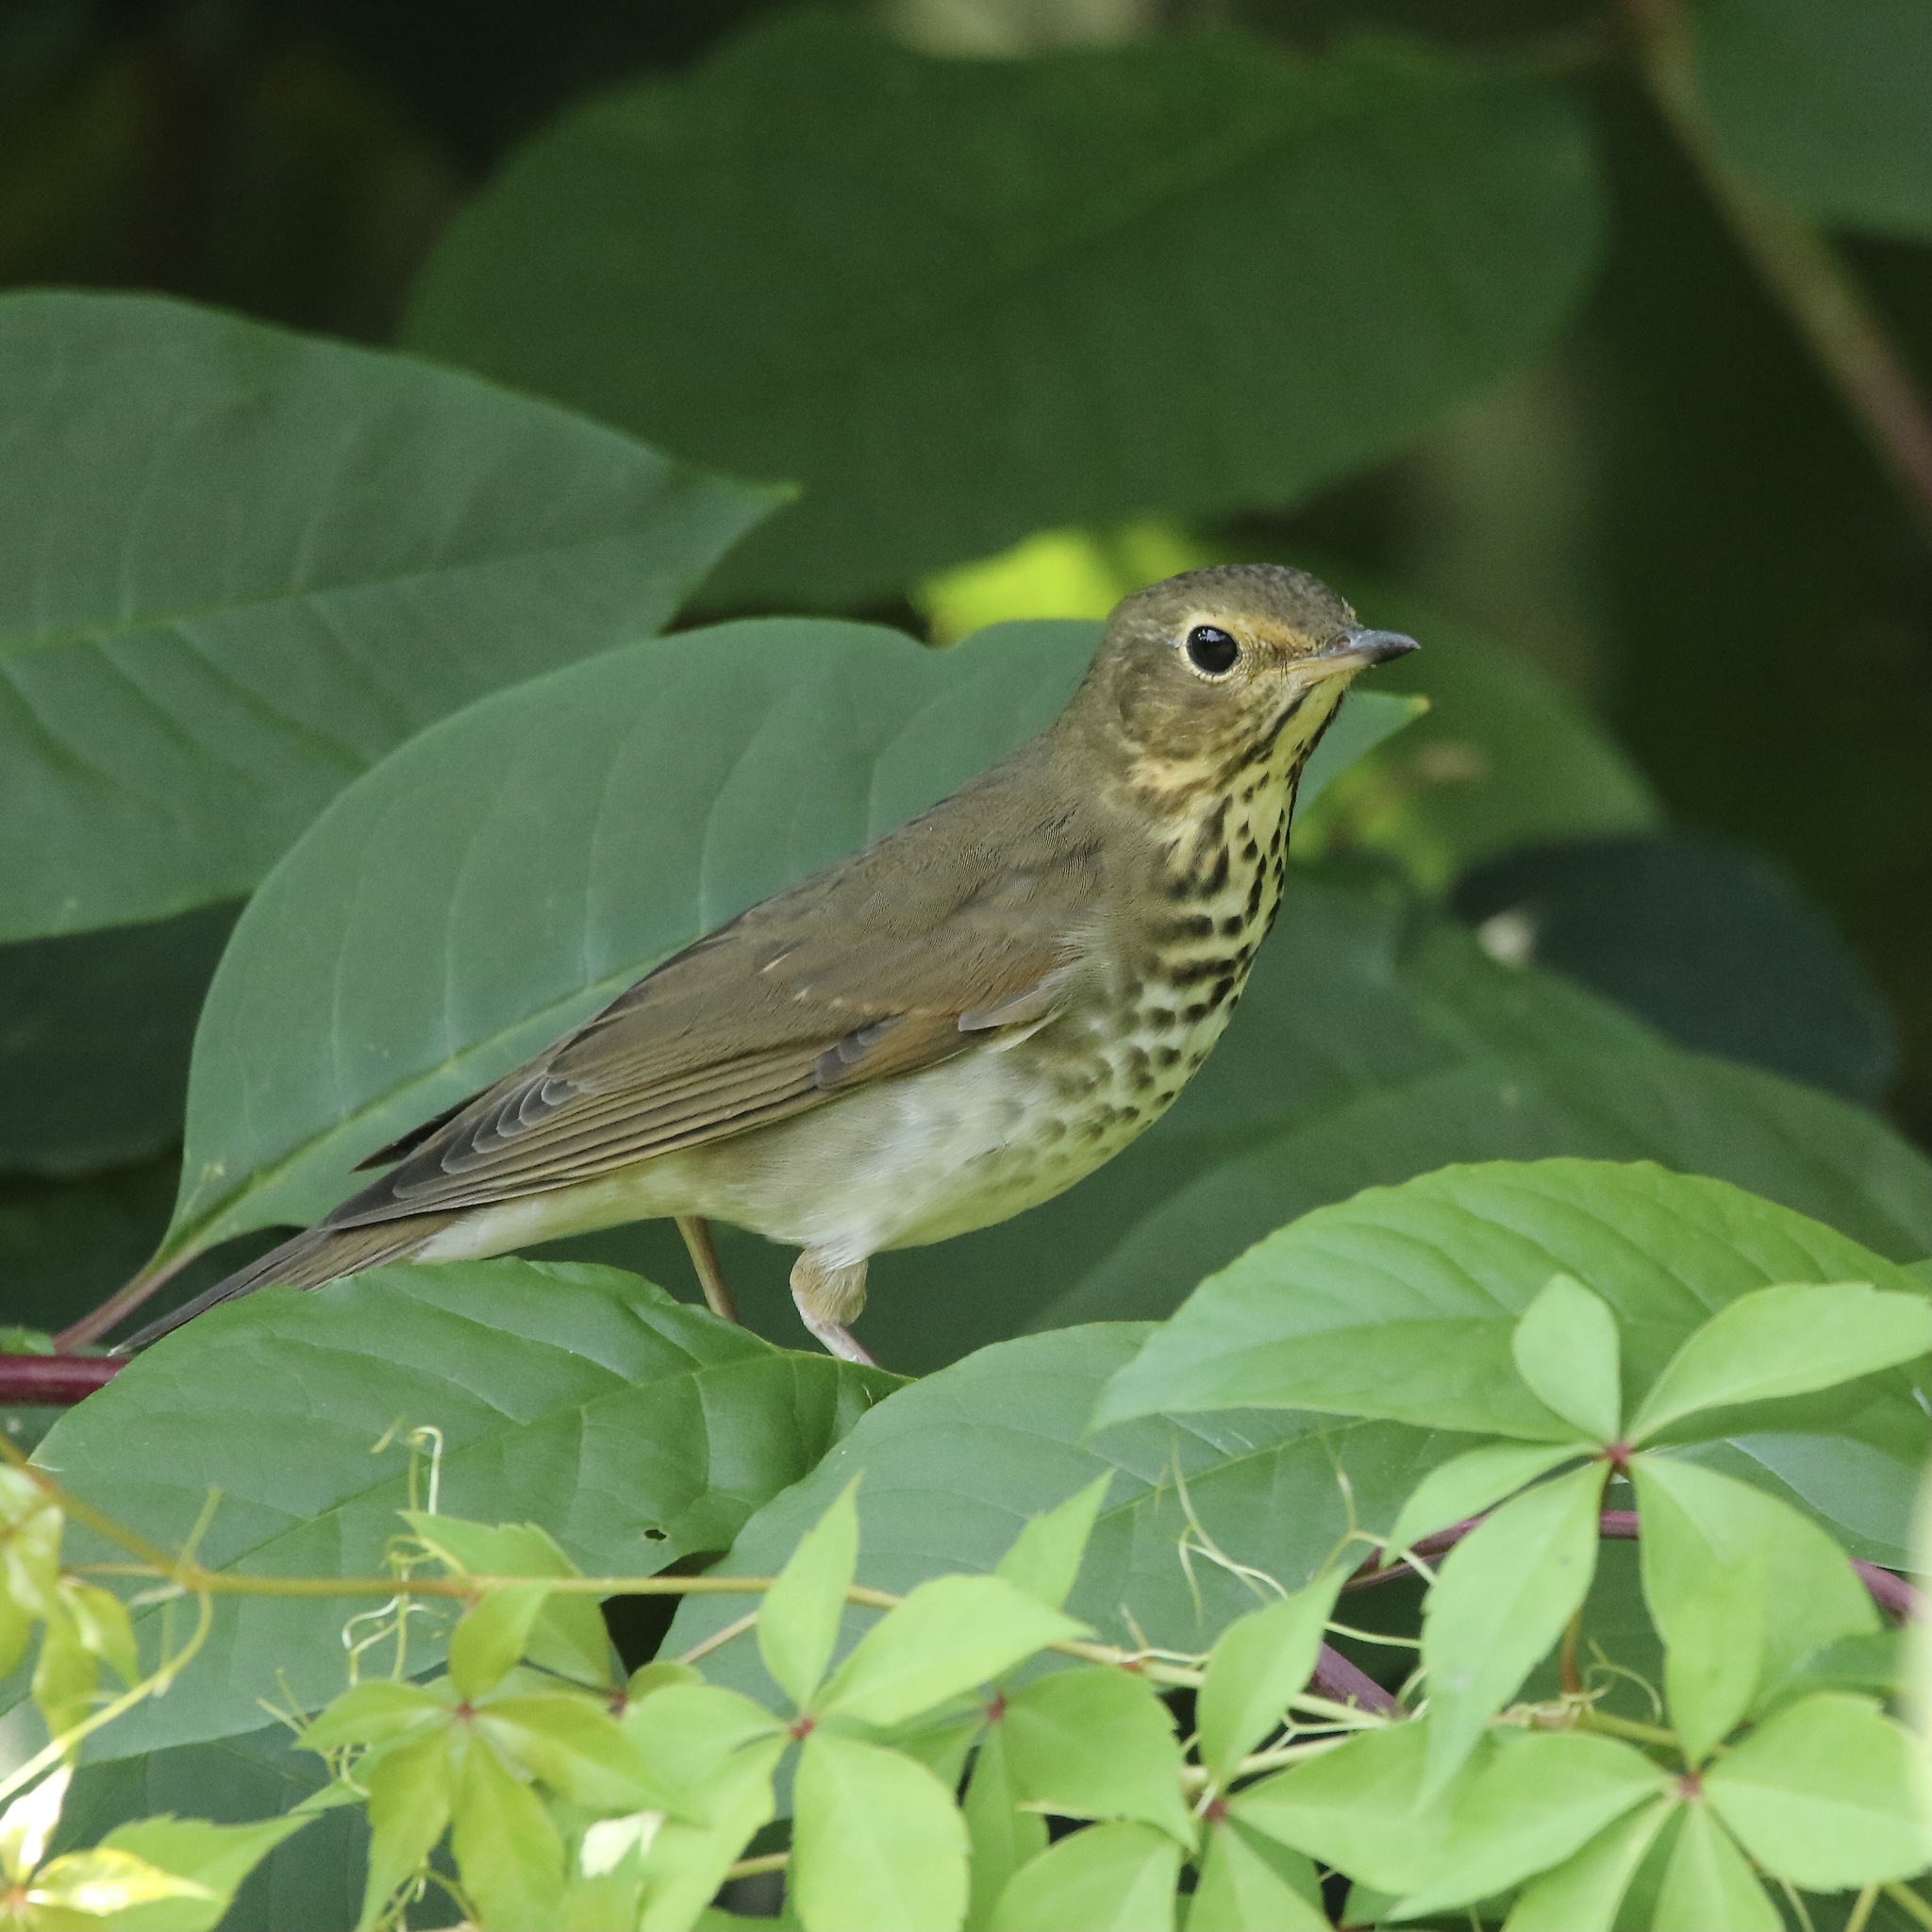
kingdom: Animalia
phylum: Chordata
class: Aves
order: Passeriformes
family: Turdidae
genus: Catharus
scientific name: Catharus ustulatus
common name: Swainson's thrush
